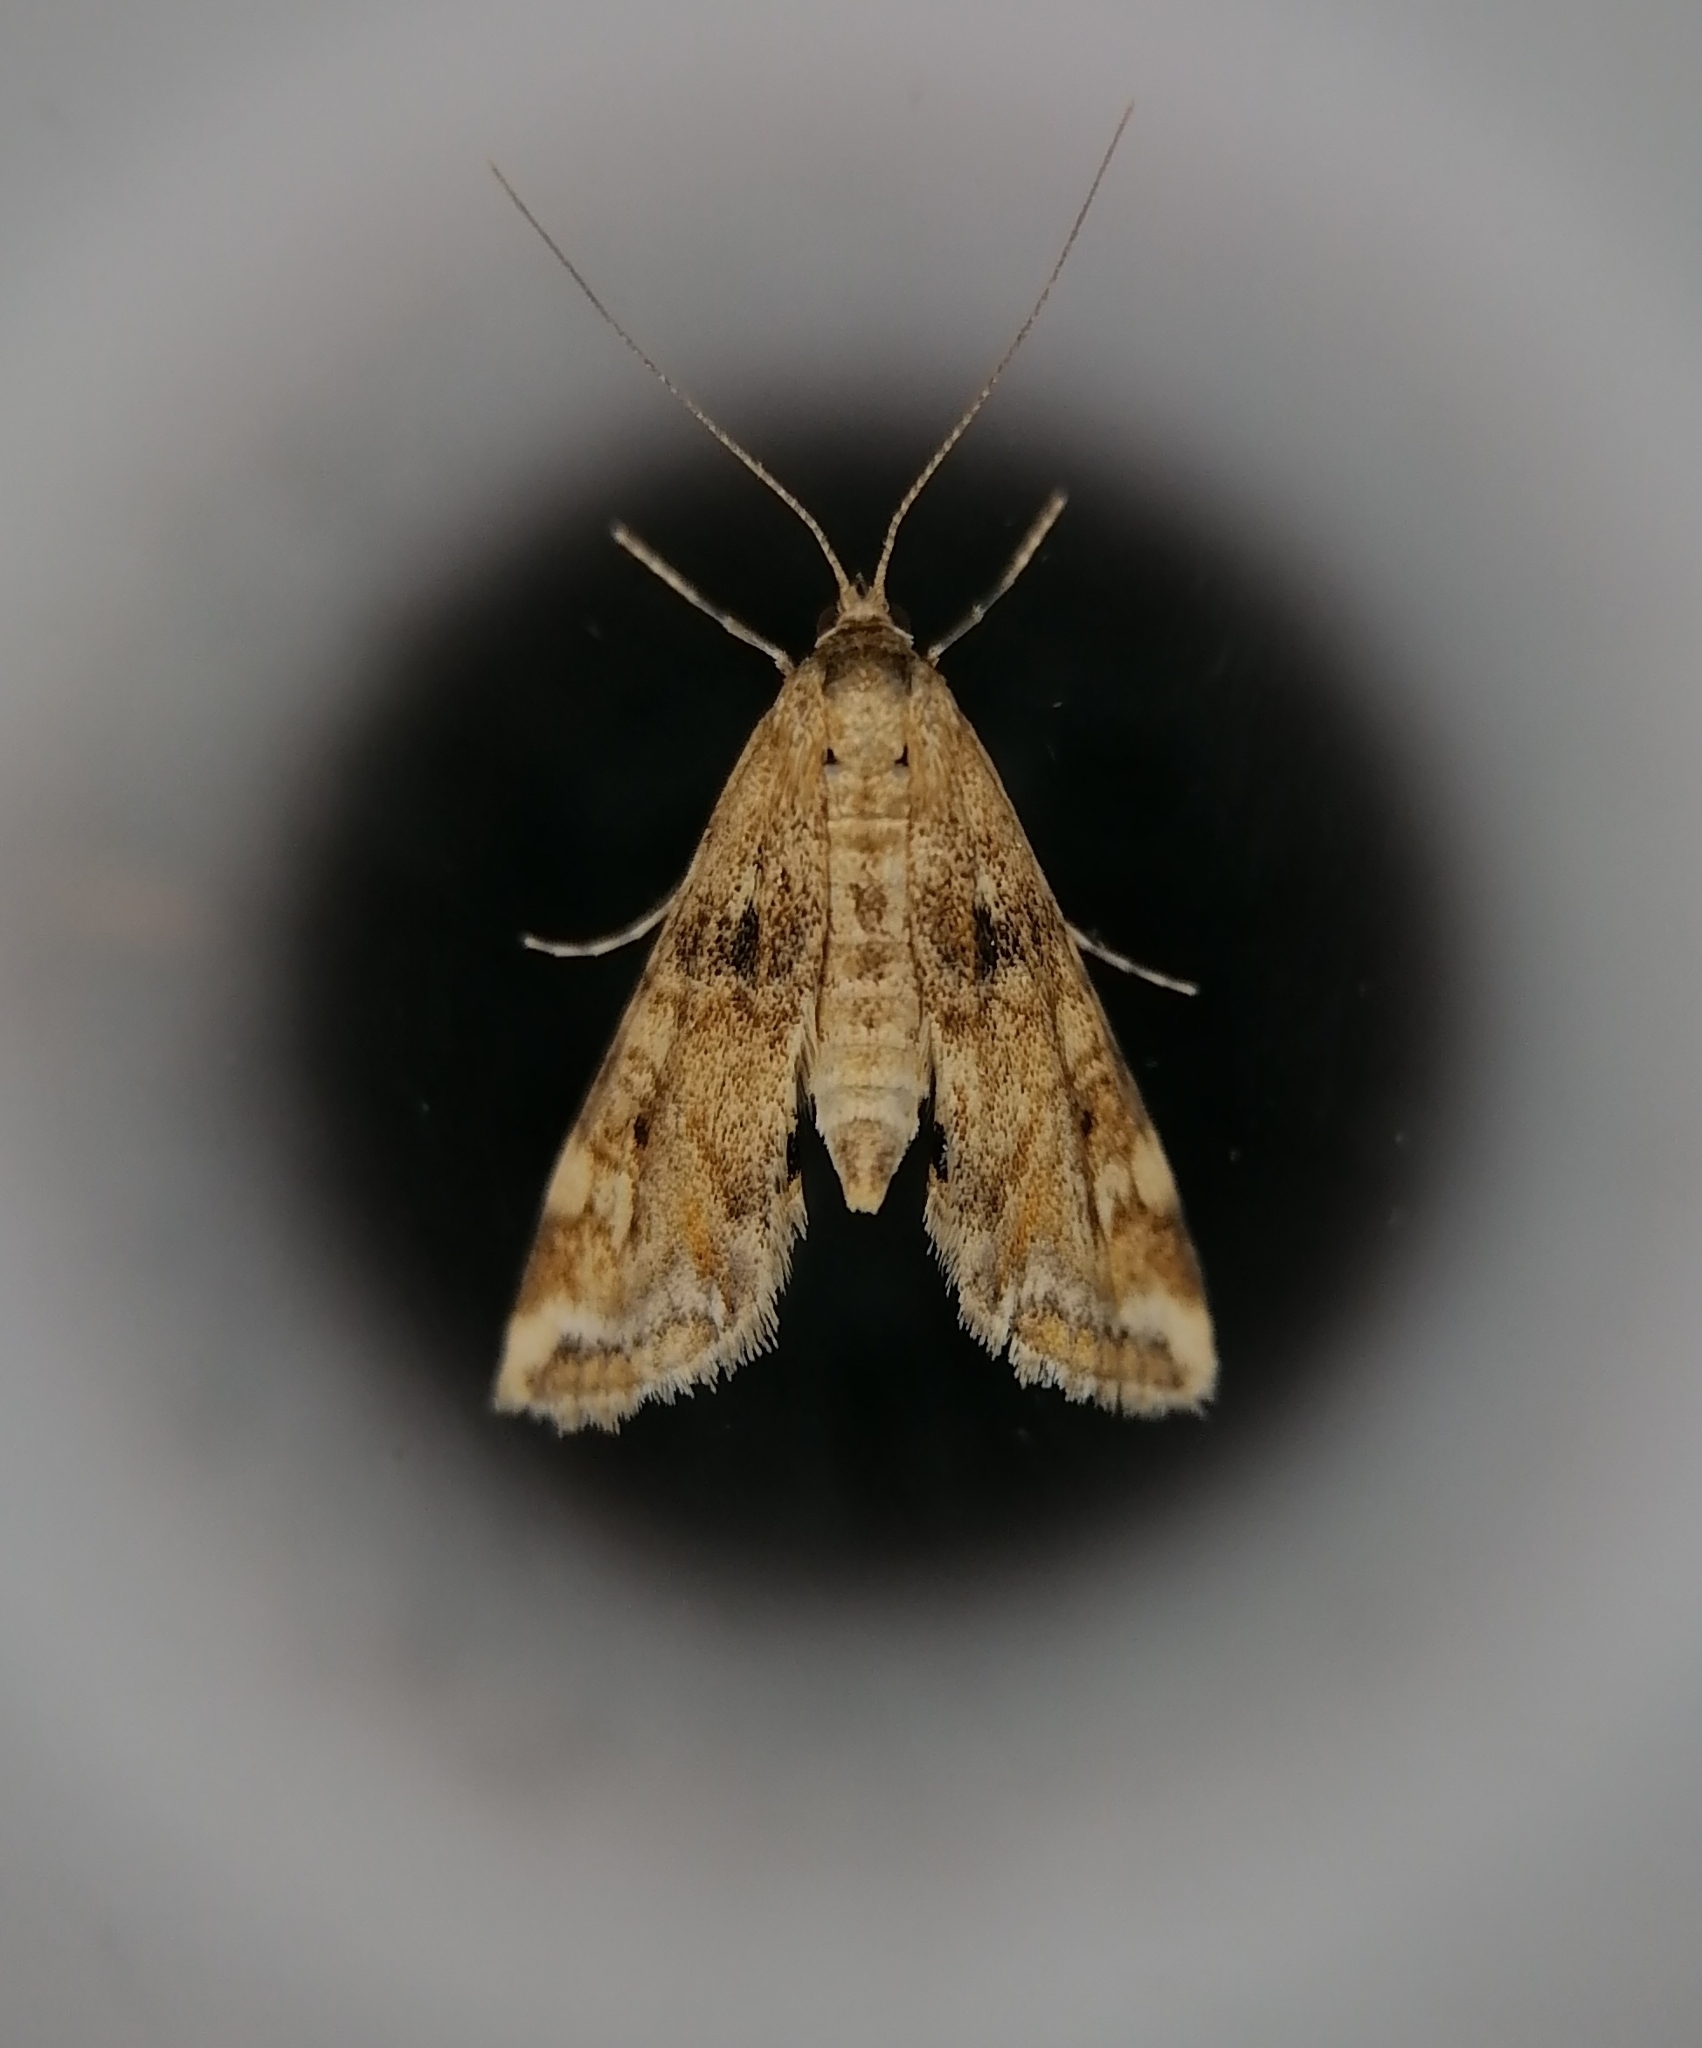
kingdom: Animalia
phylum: Arthropoda
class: Insecta
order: Lepidoptera
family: Crambidae
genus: Cataclysta
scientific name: Cataclysta lemnata
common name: Small china-mark
